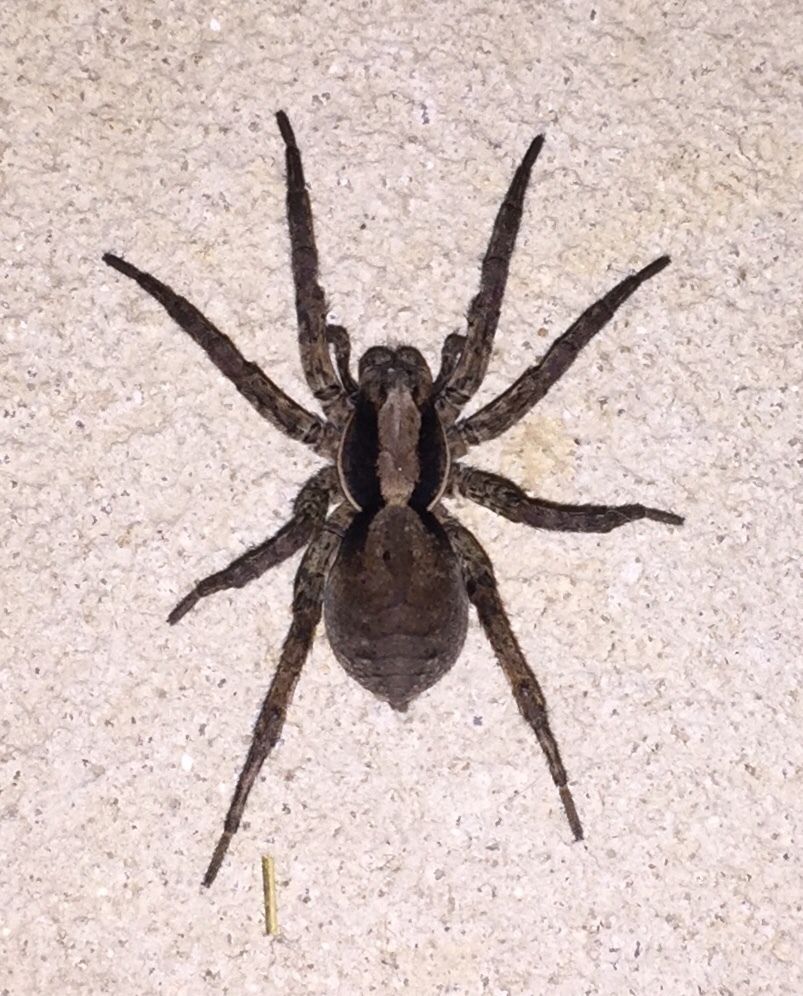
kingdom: Animalia
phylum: Arthropoda
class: Arachnida
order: Araneae
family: Lycosidae
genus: Hogna
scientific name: Hogna frondicola
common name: Forest wolf spider
